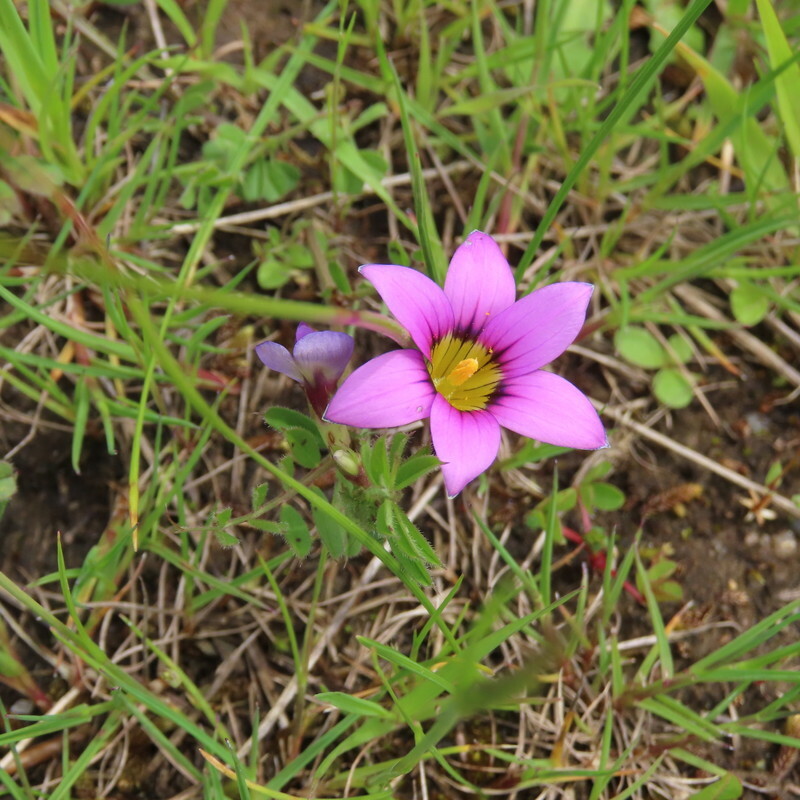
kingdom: Plantae
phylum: Tracheophyta
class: Liliopsida
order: Asparagales
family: Iridaceae
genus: Romulea
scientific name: Romulea rosea
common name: Oniongrass
